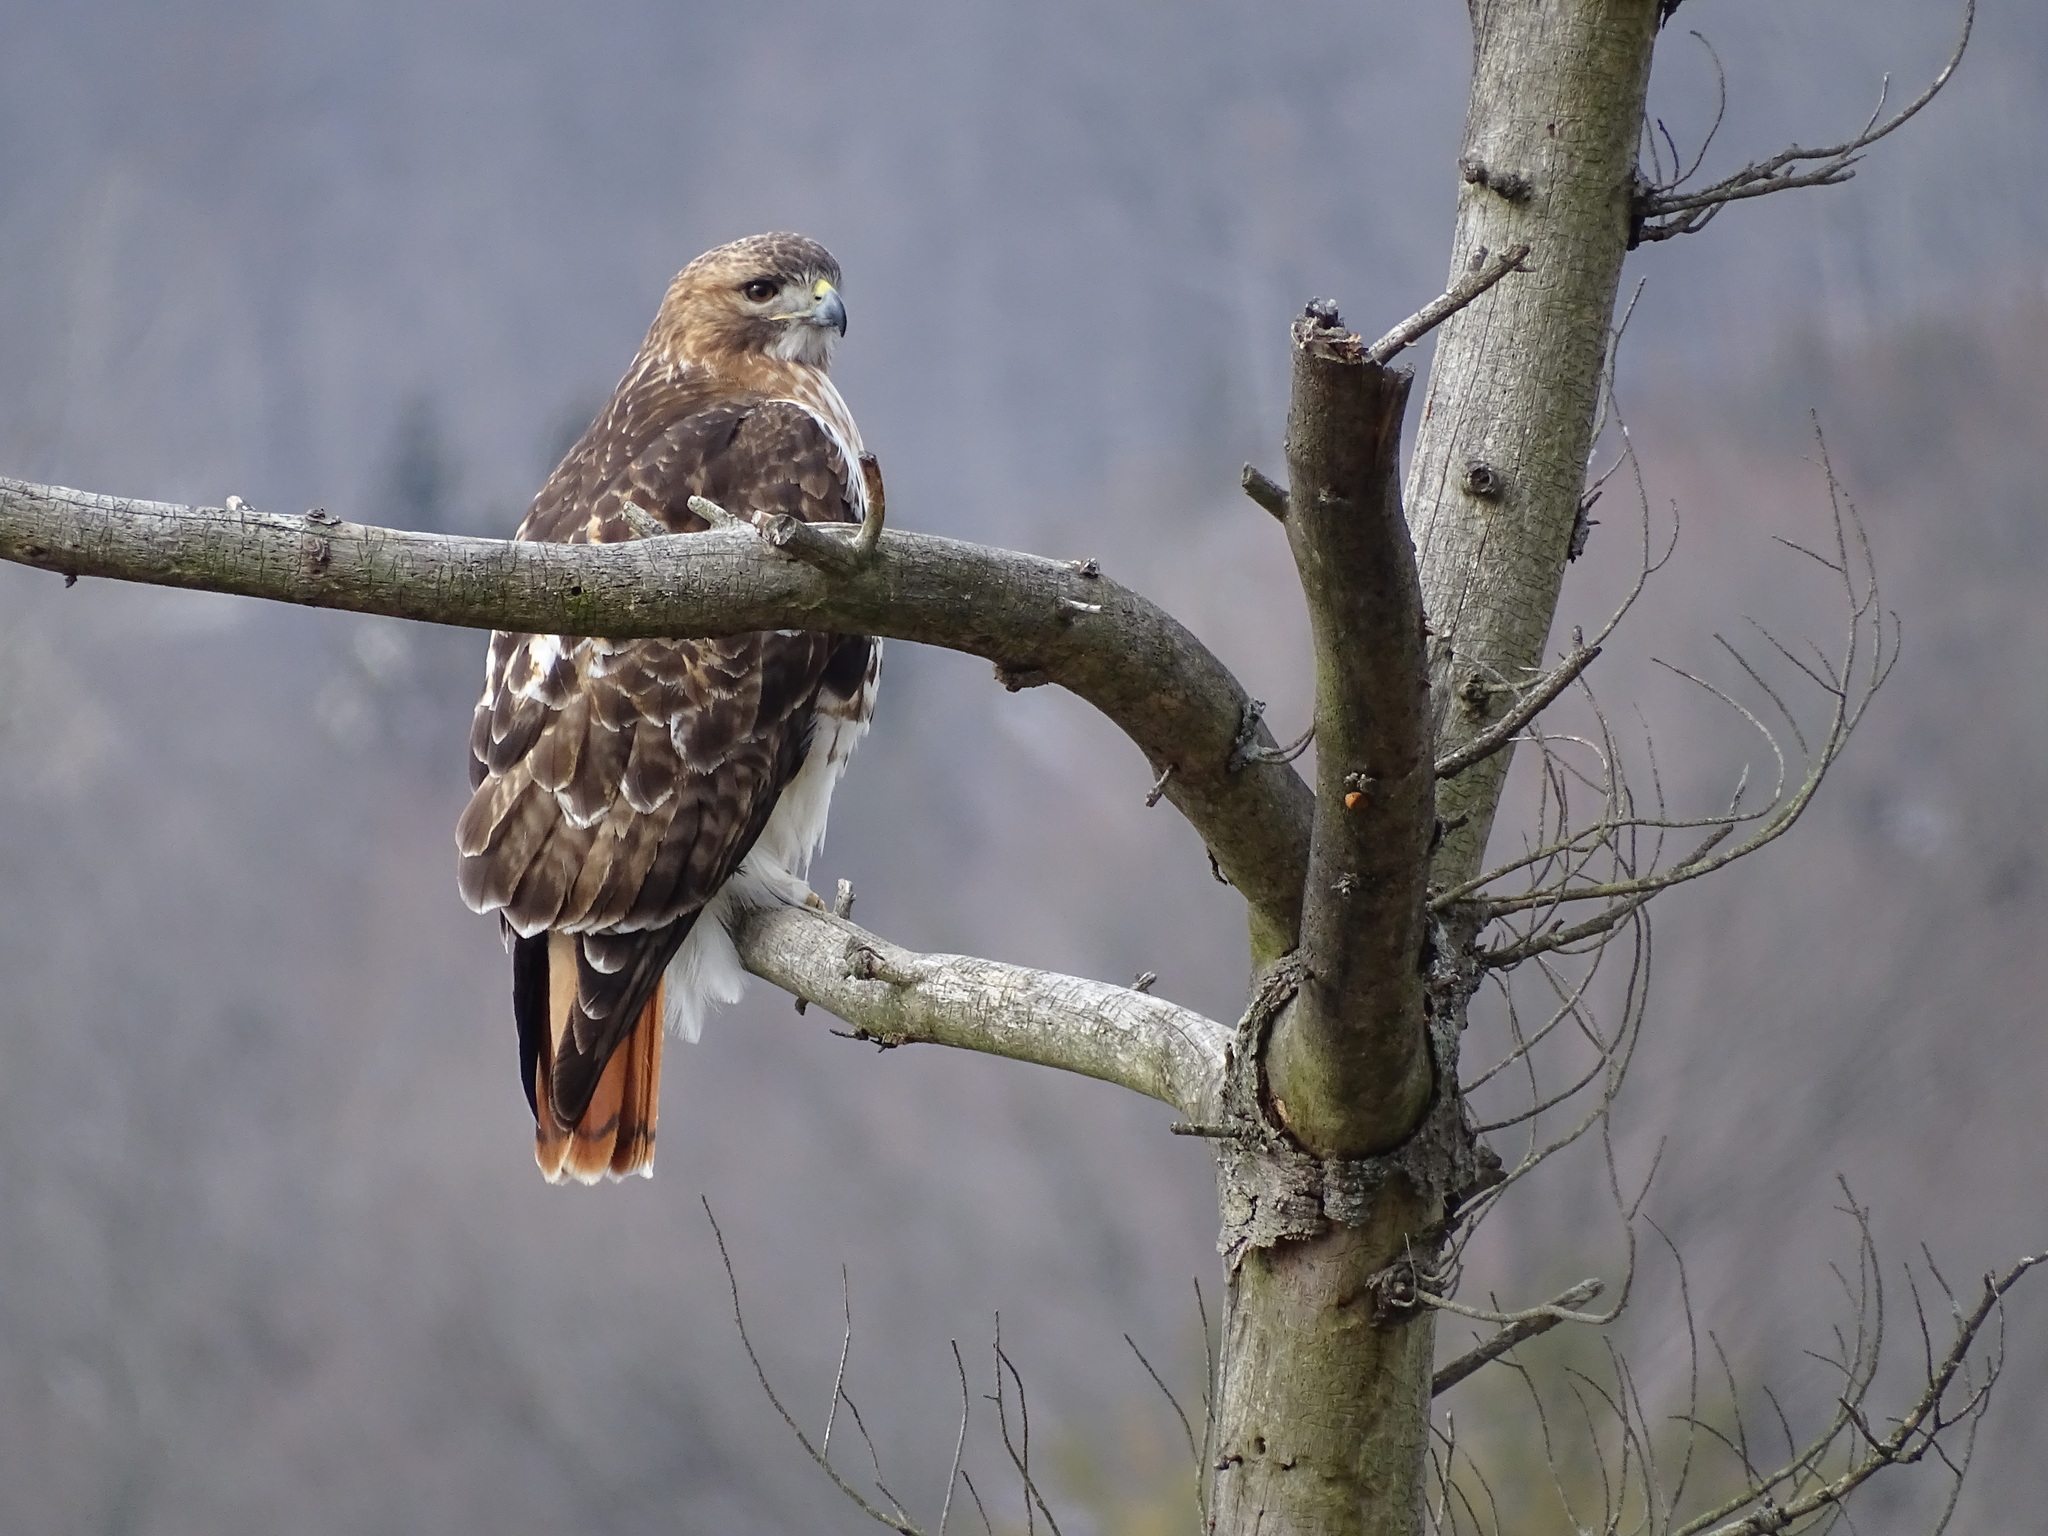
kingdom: Animalia
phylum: Chordata
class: Aves
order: Accipitriformes
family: Accipitridae
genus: Buteo
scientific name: Buteo jamaicensis
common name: Red-tailed hawk
